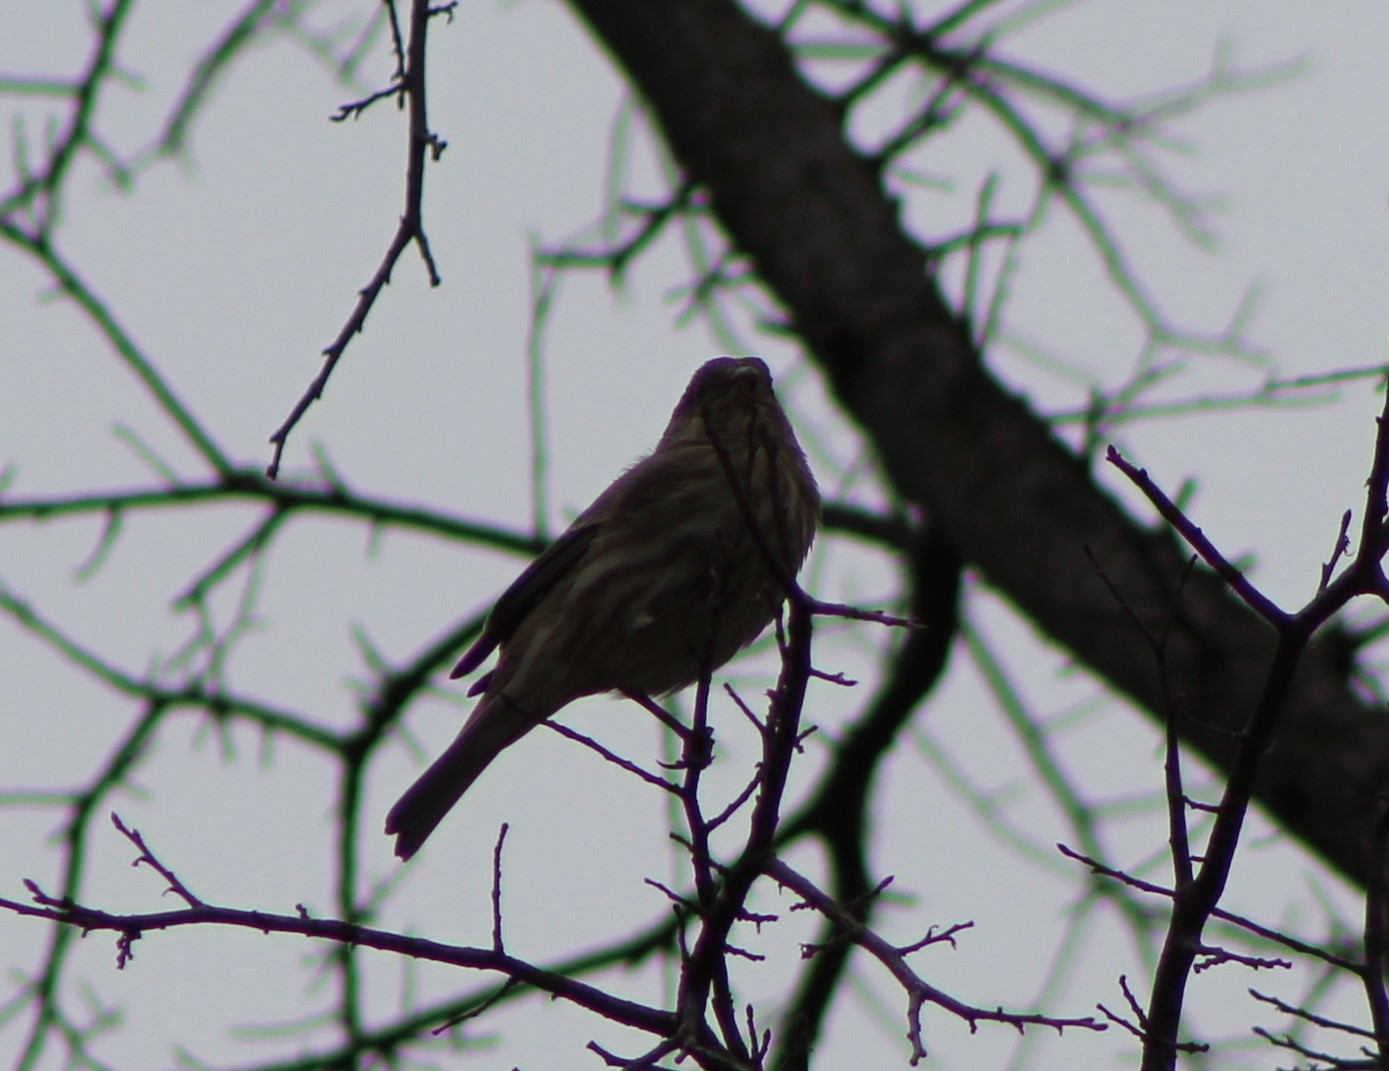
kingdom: Animalia
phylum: Chordata
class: Aves
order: Passeriformes
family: Fringillidae
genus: Haemorhous
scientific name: Haemorhous mexicanus
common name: House finch
